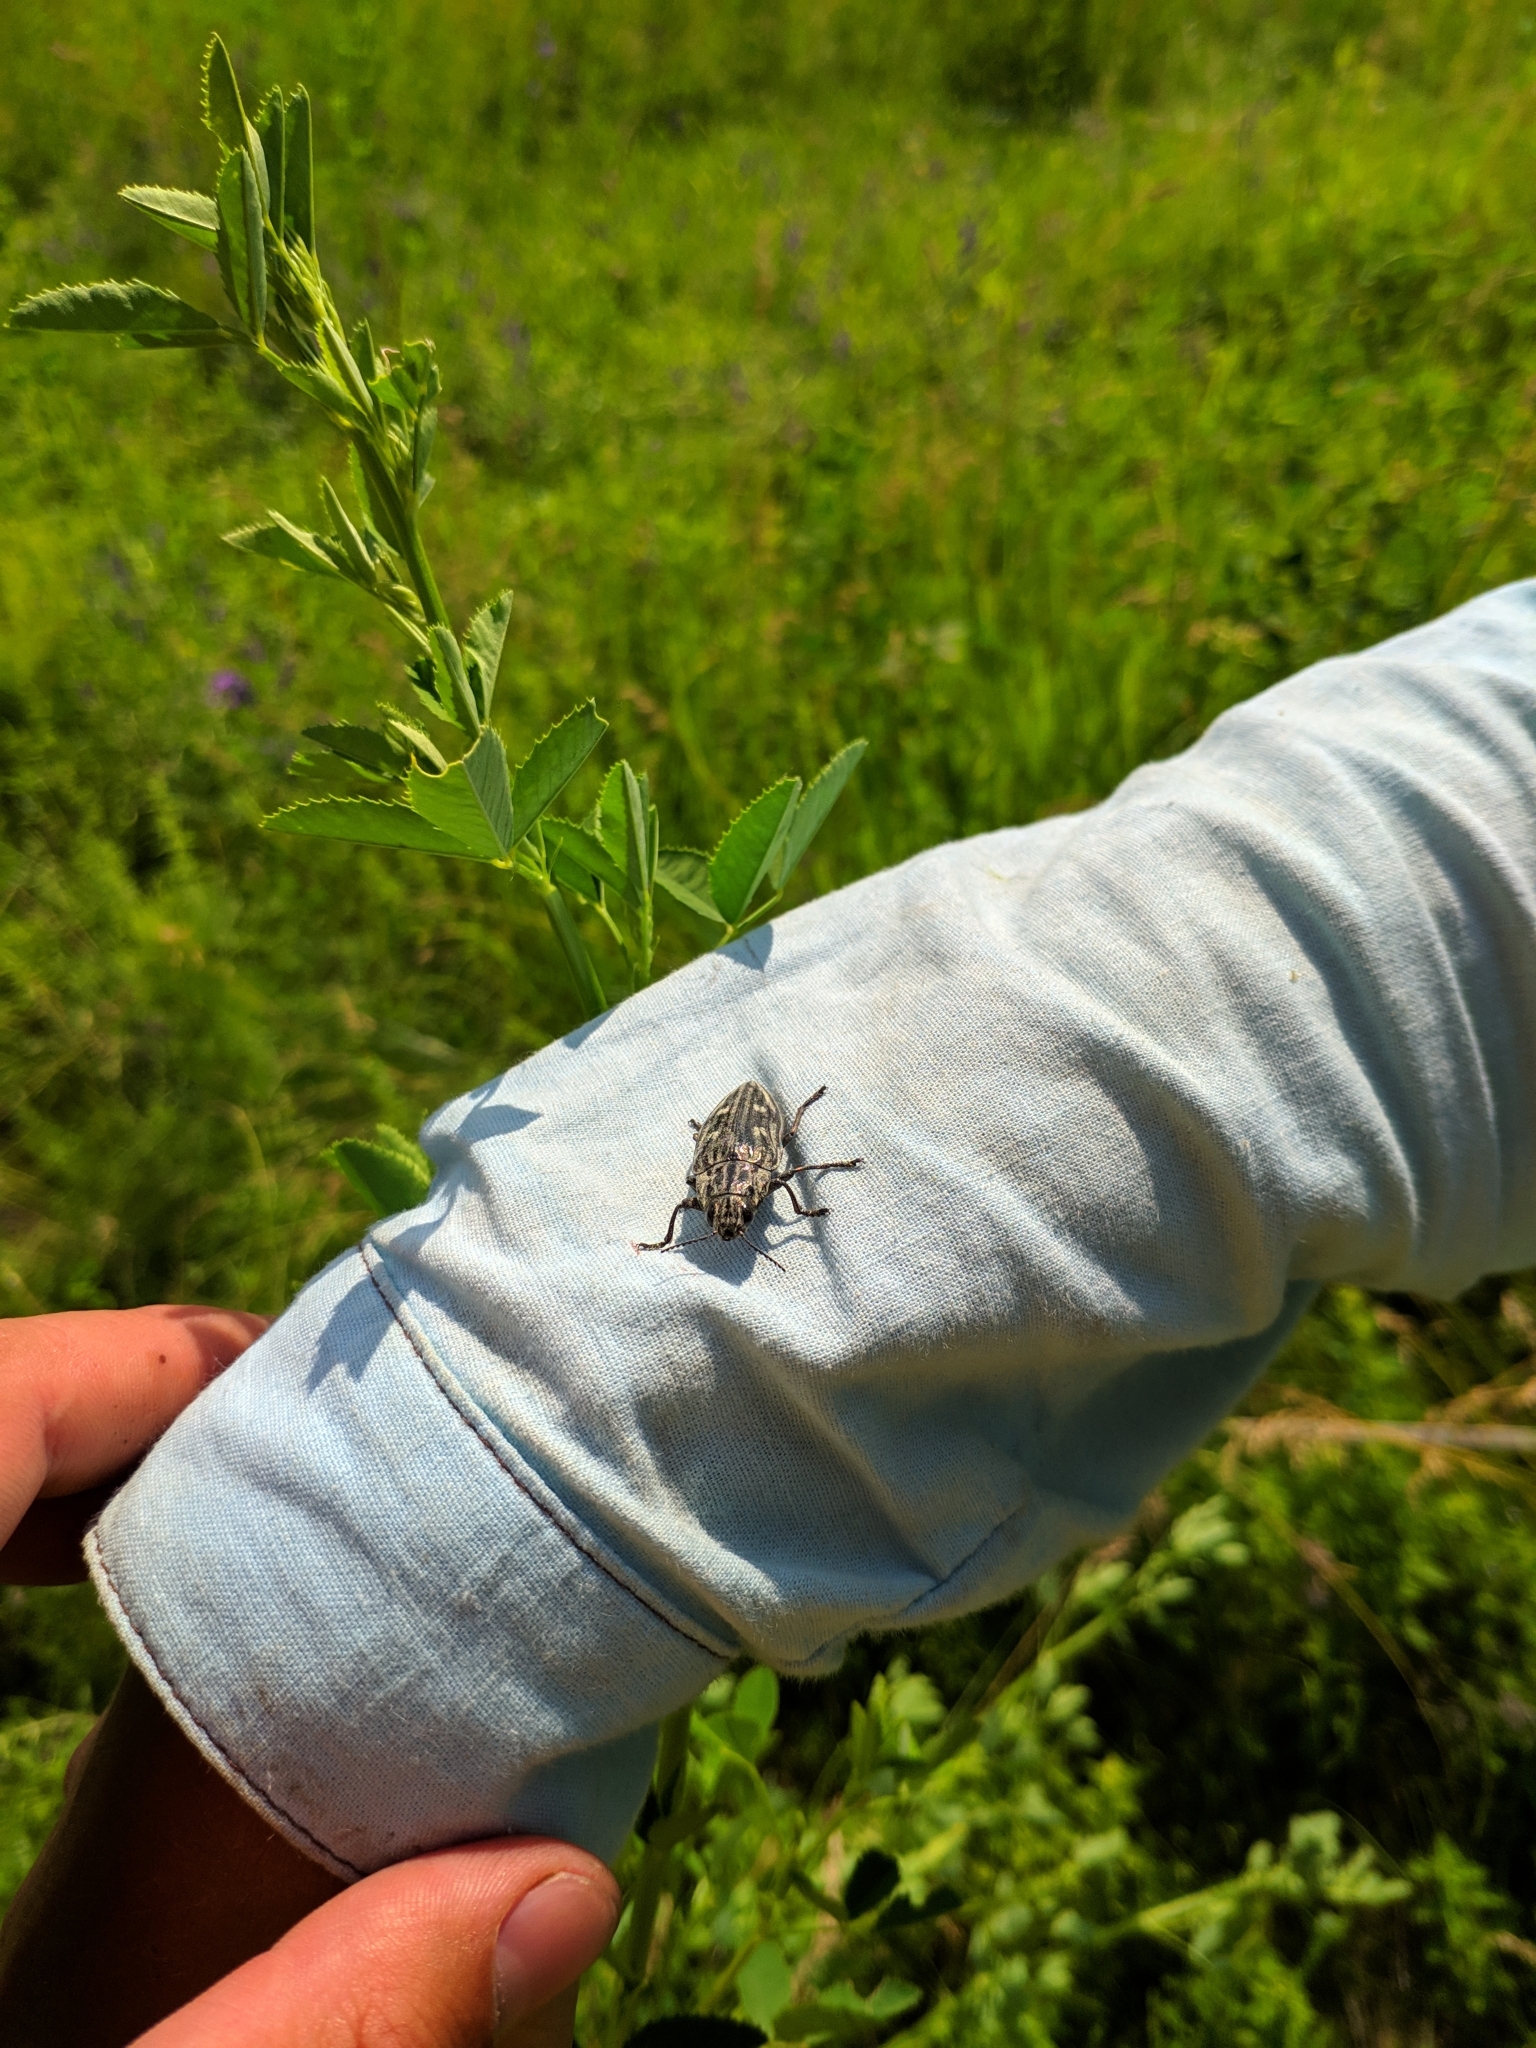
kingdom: Animalia
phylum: Arthropoda
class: Insecta
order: Coleoptera
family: Buprestidae
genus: Chalcophora
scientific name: Chalcophora mariana
